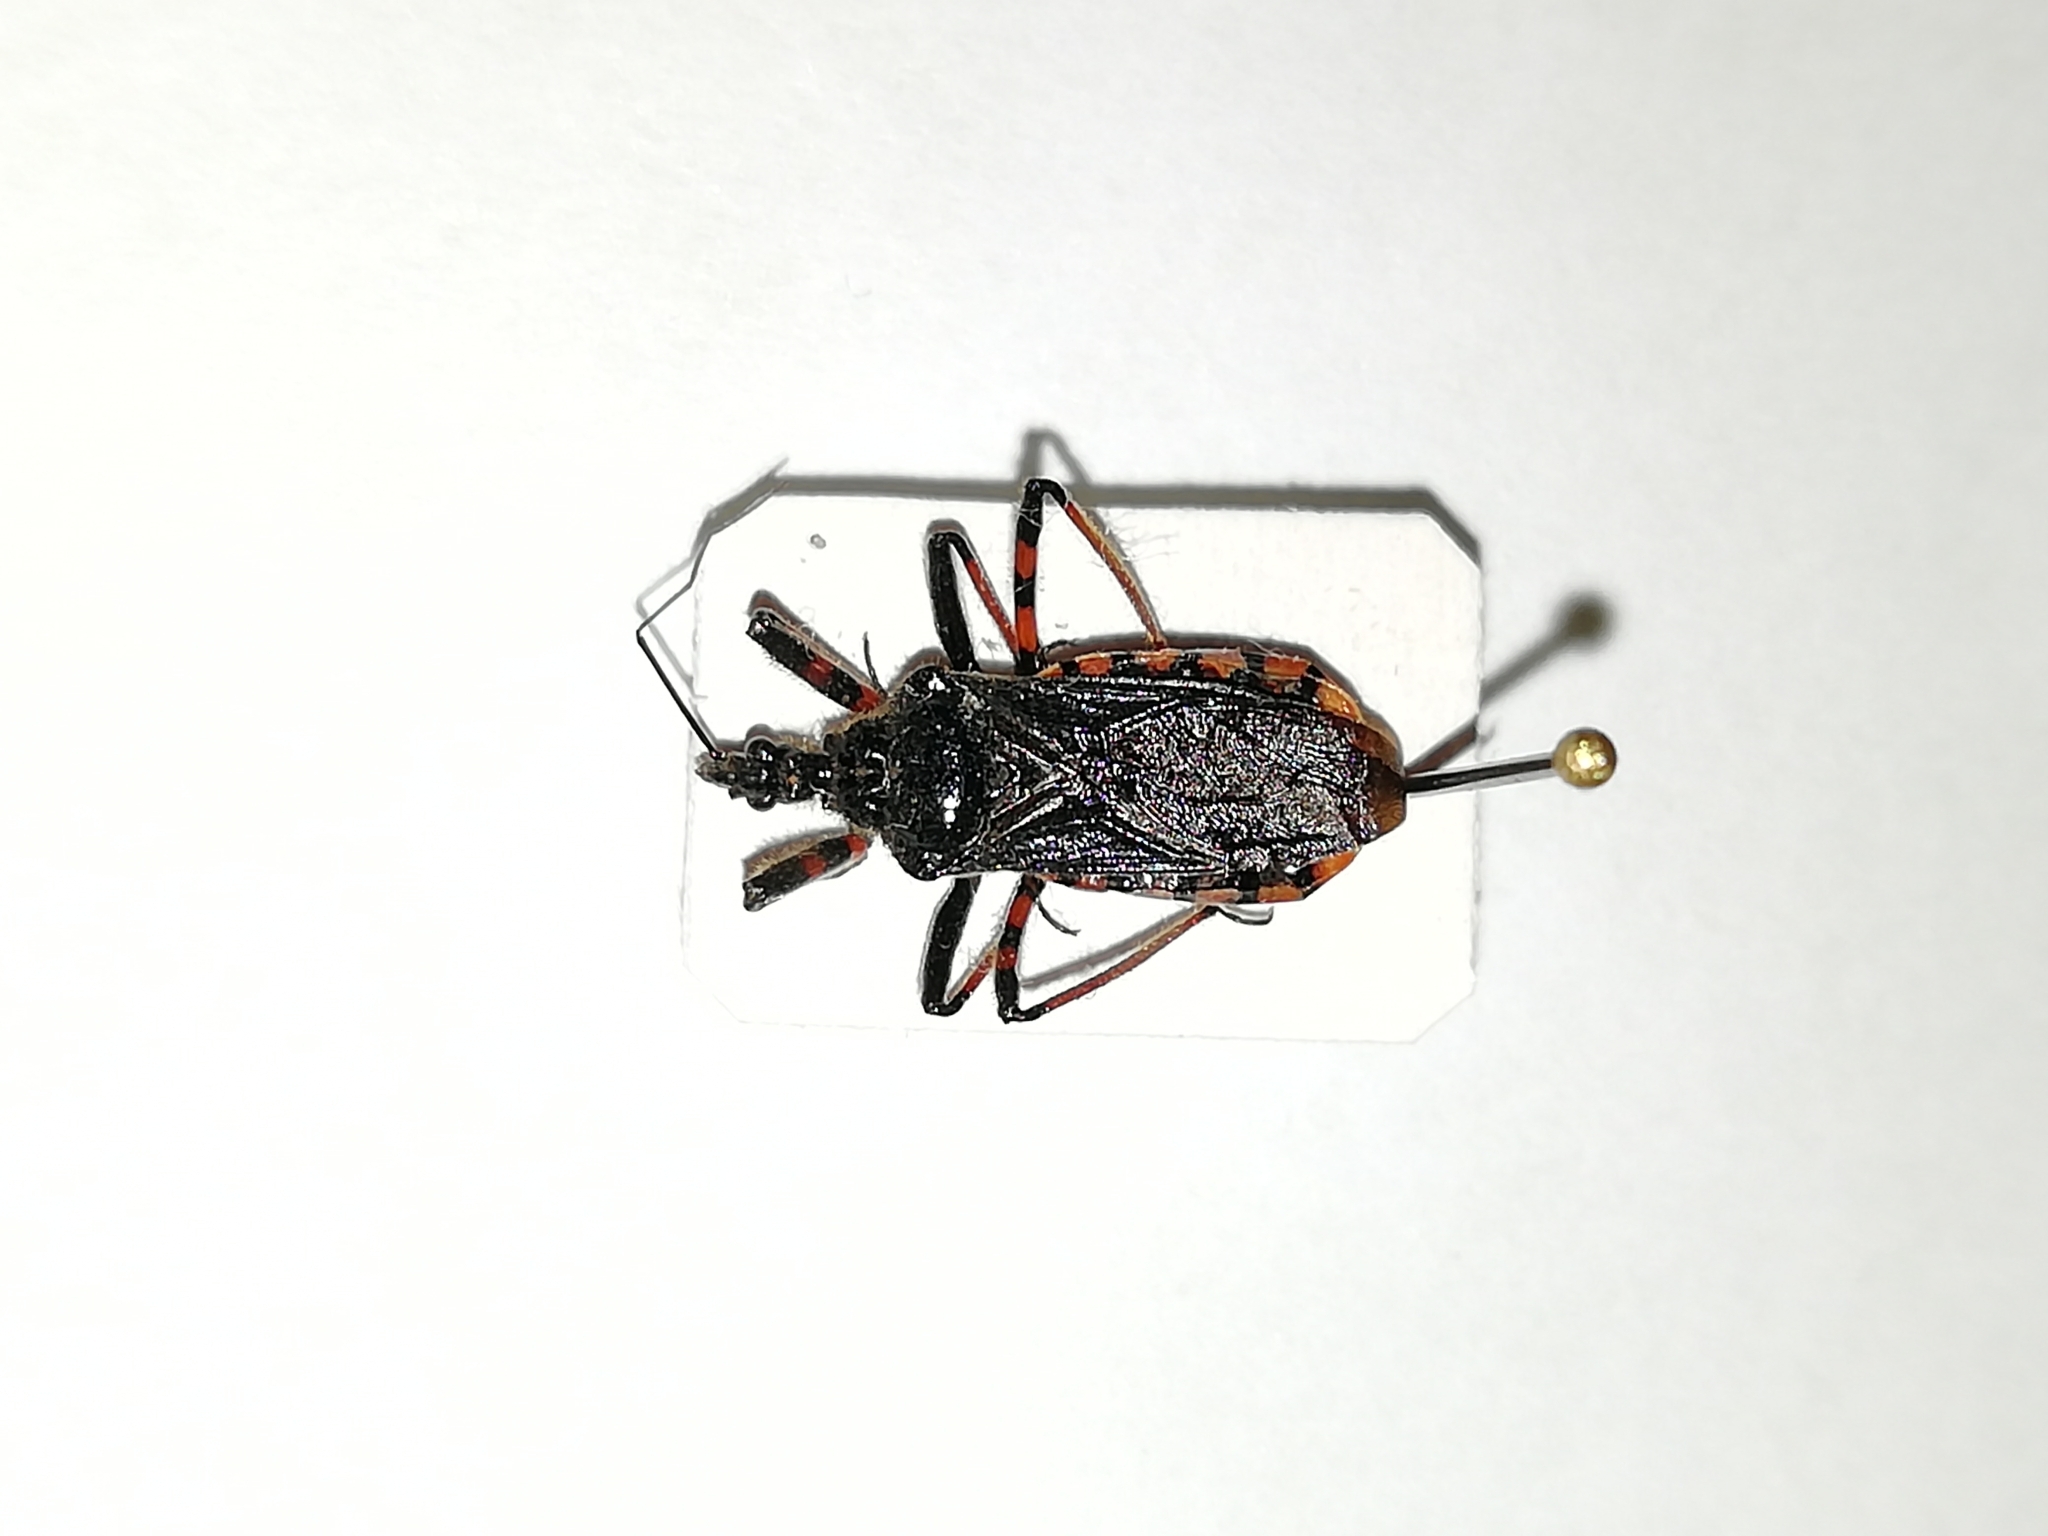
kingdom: Animalia
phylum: Arthropoda
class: Insecta
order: Hemiptera
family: Reduviidae
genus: Rhynocoris
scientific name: Rhynocoris annulatus
